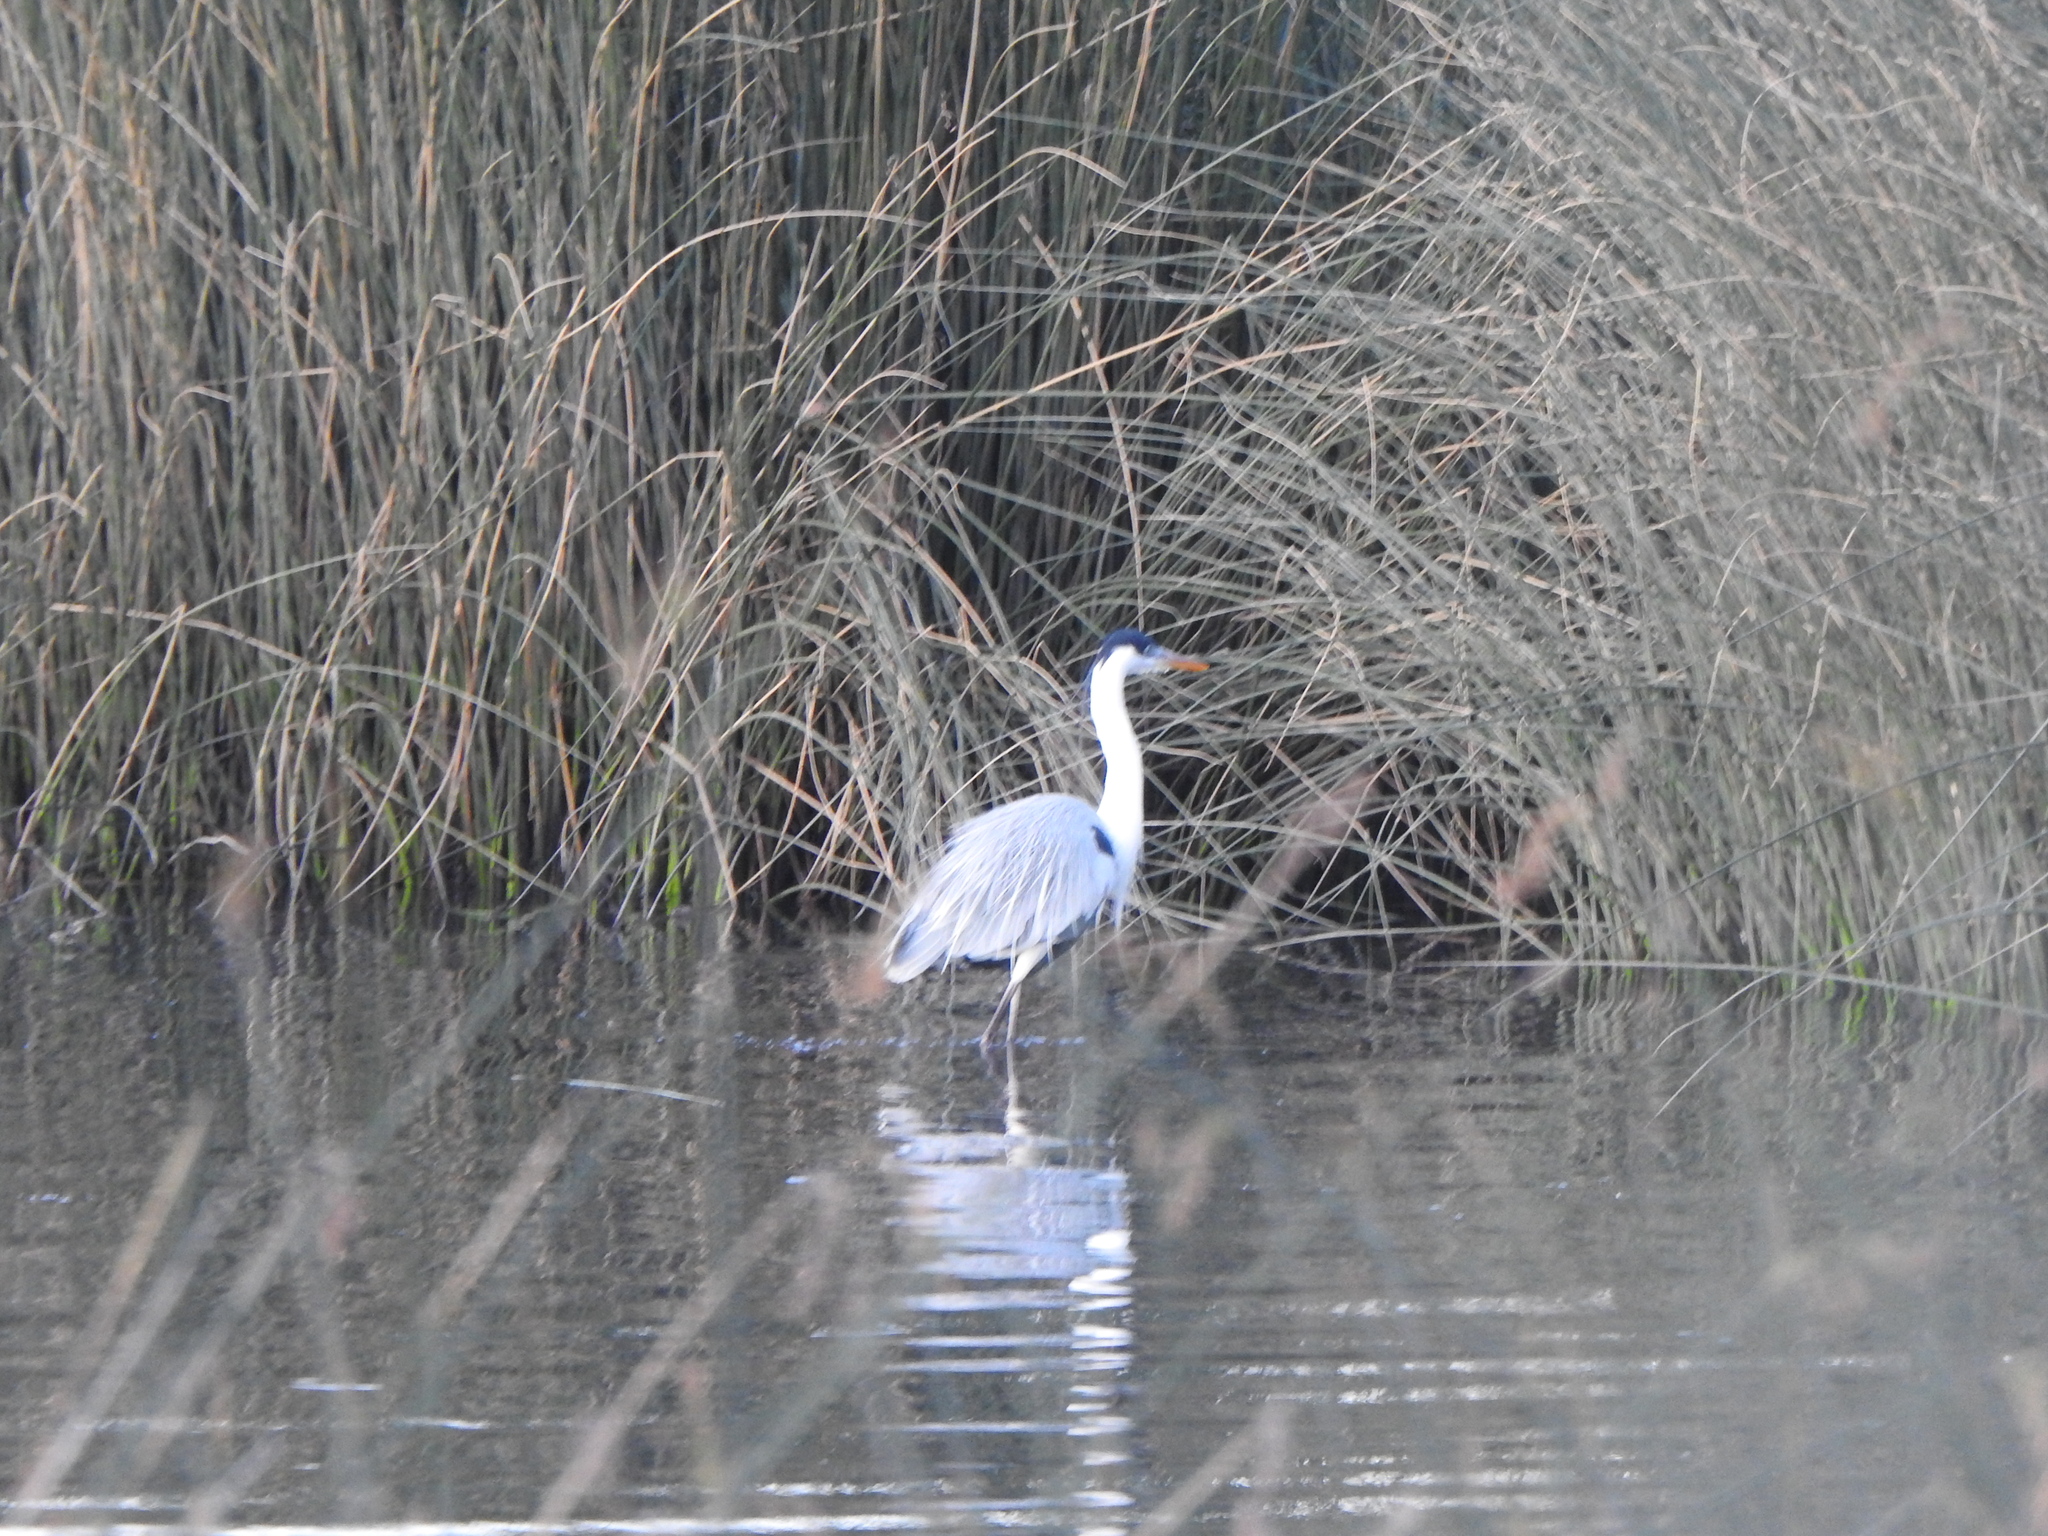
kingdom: Animalia
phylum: Chordata
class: Aves
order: Pelecaniformes
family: Ardeidae
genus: Ardea
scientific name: Ardea cocoi
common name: Cocoi heron
